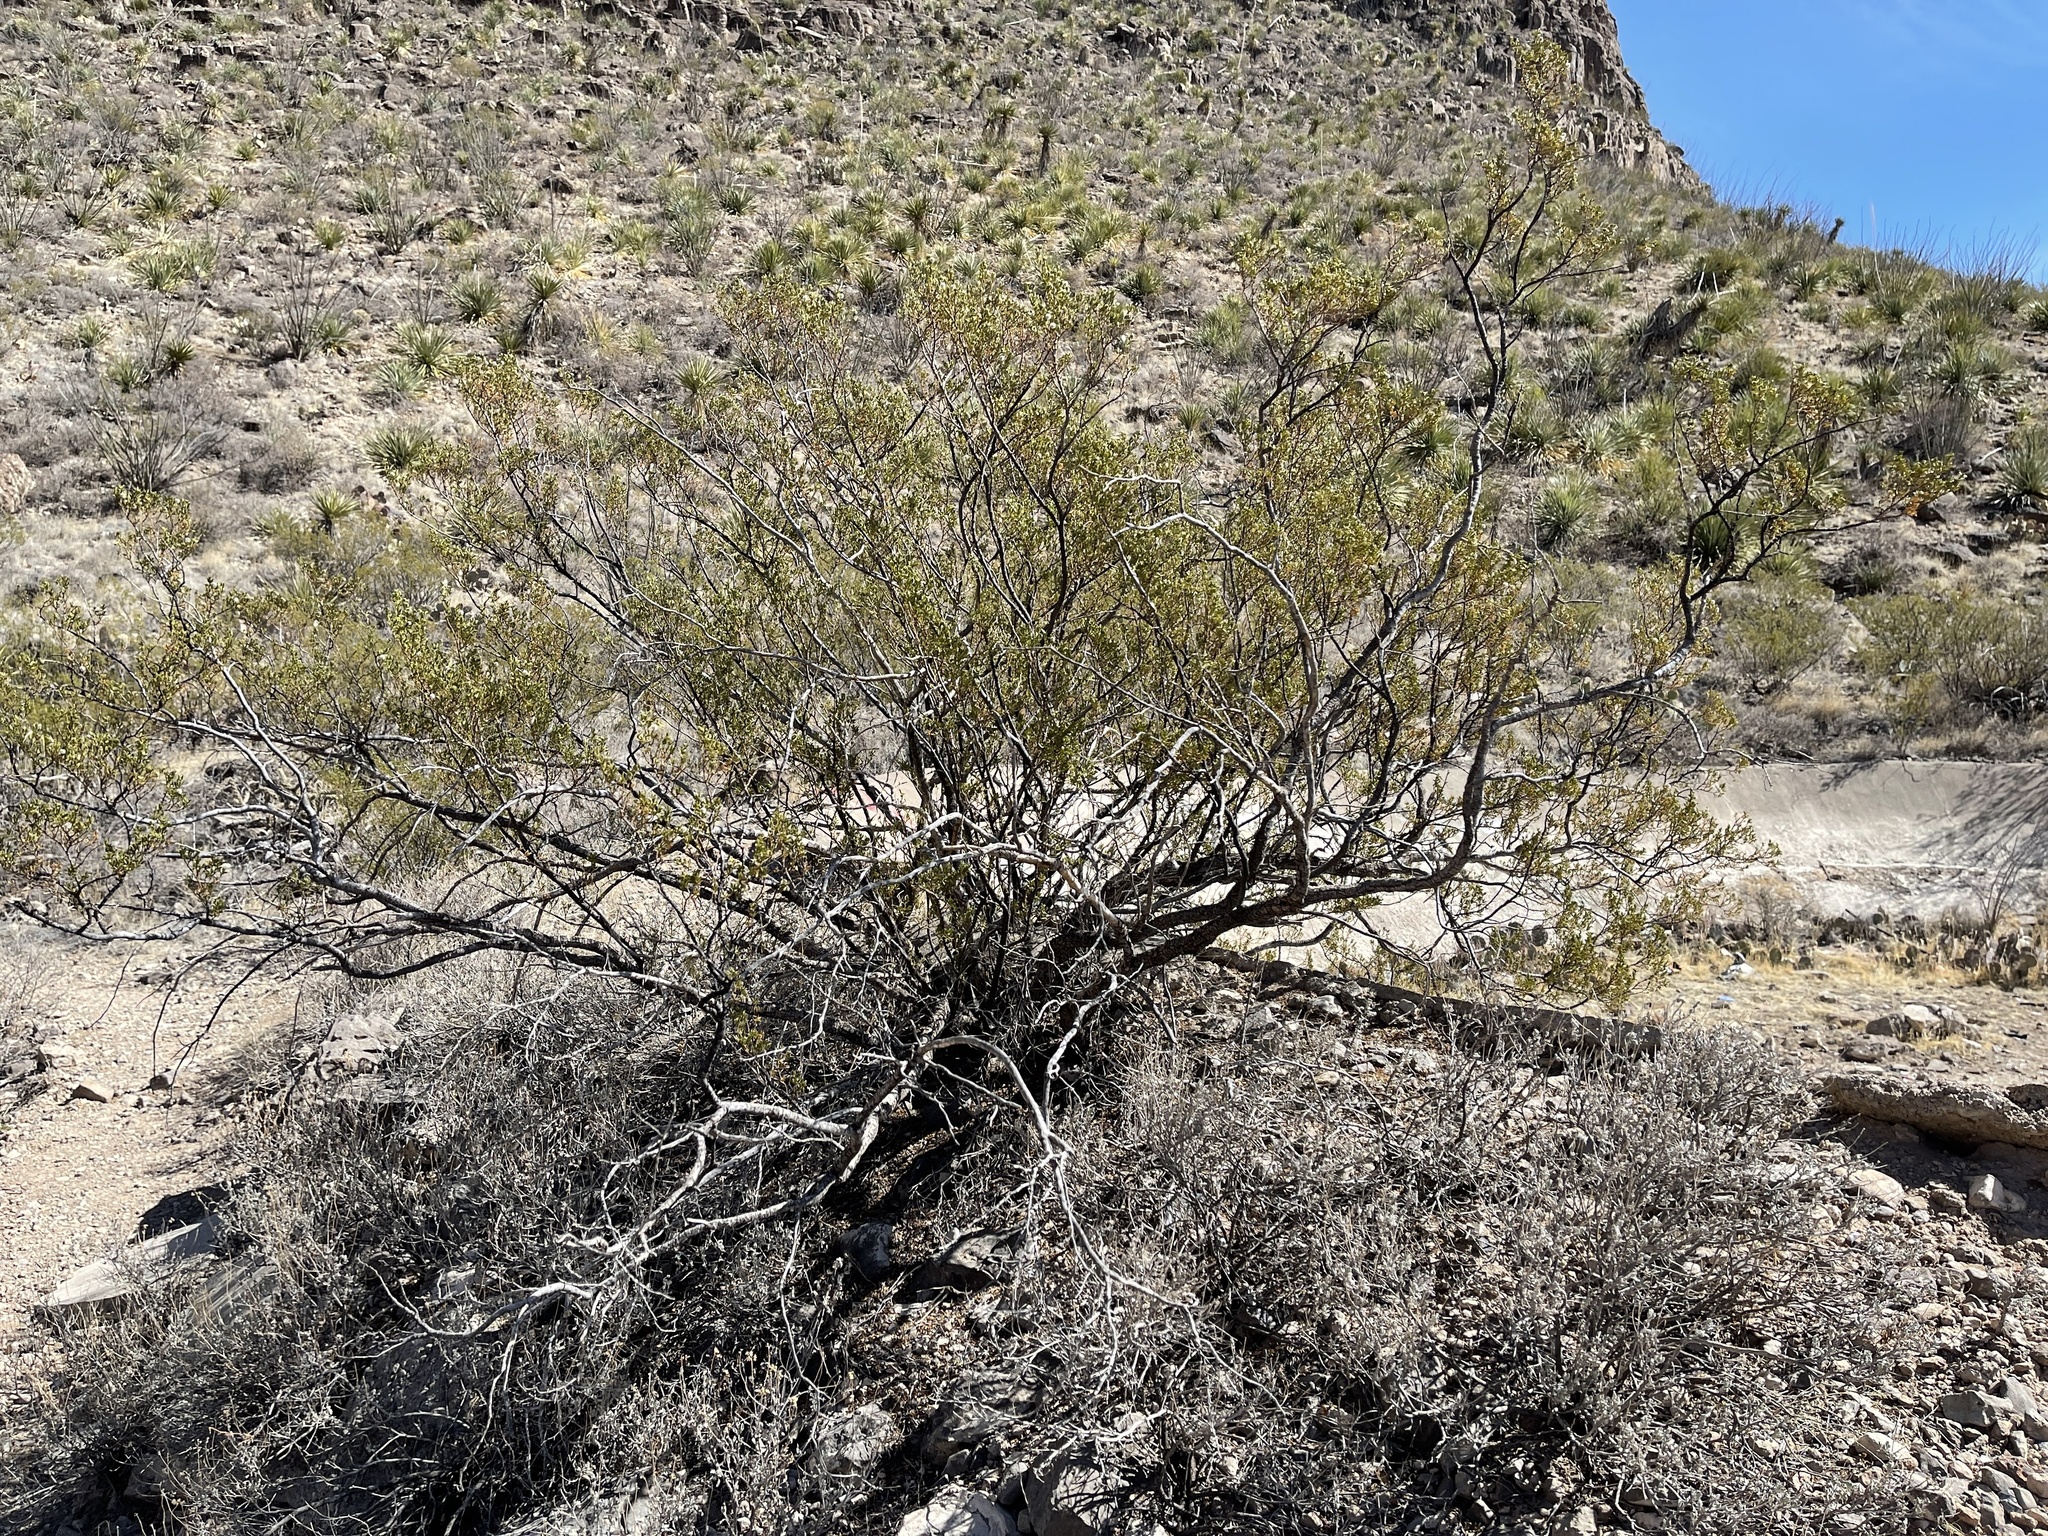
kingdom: Plantae
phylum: Tracheophyta
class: Magnoliopsida
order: Zygophyllales
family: Zygophyllaceae
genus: Larrea
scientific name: Larrea tridentata
